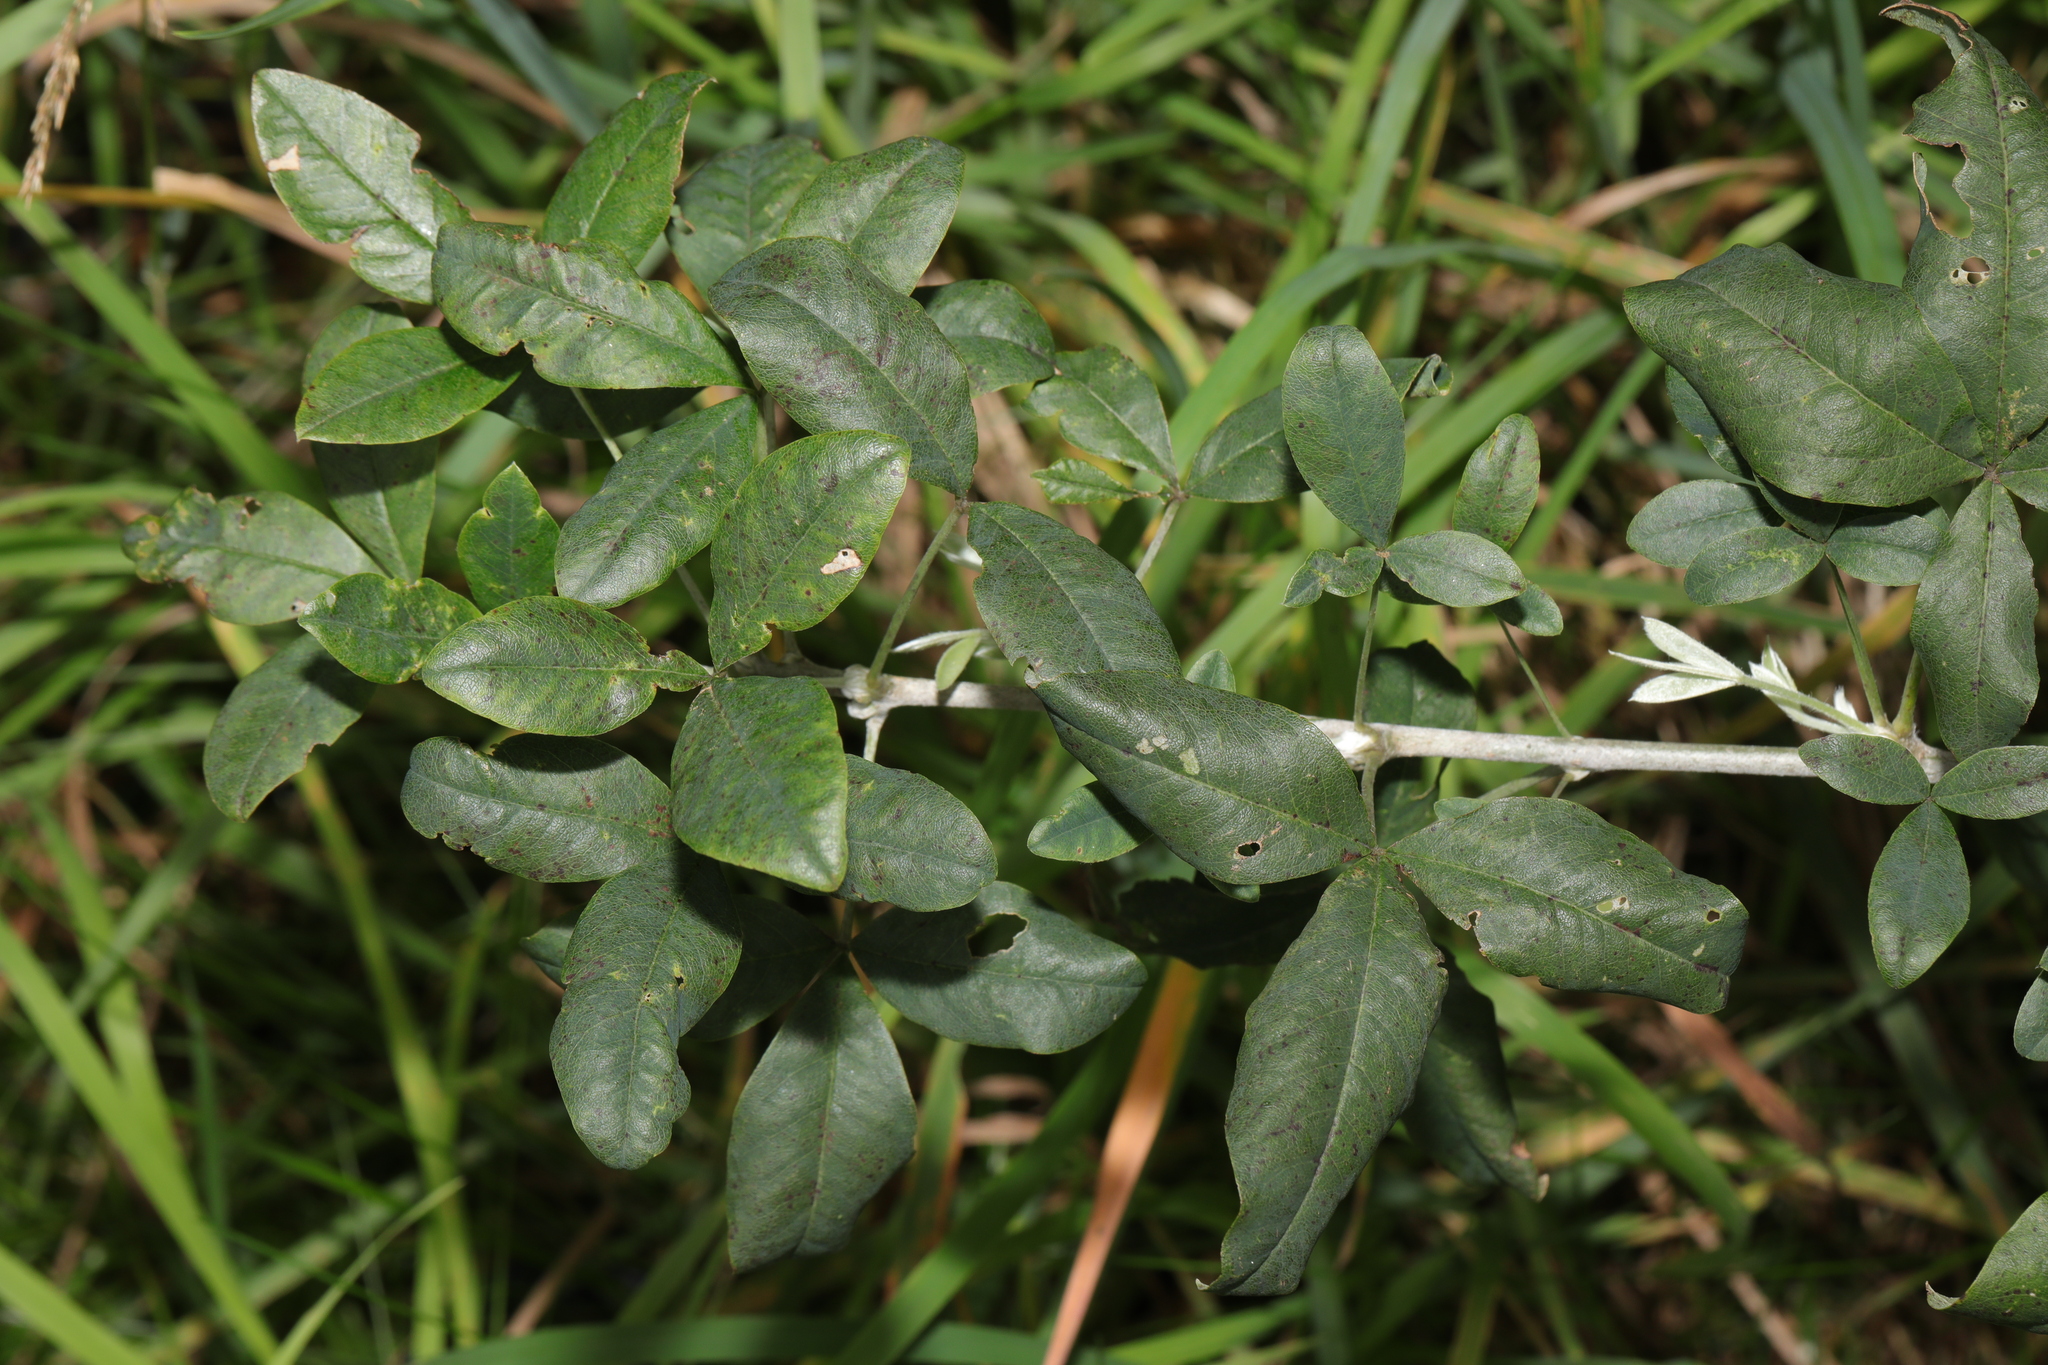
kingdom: Plantae
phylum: Tracheophyta
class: Magnoliopsida
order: Fabales
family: Fabaceae
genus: Laburnum
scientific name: Laburnum anagyroides
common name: Laburnum
